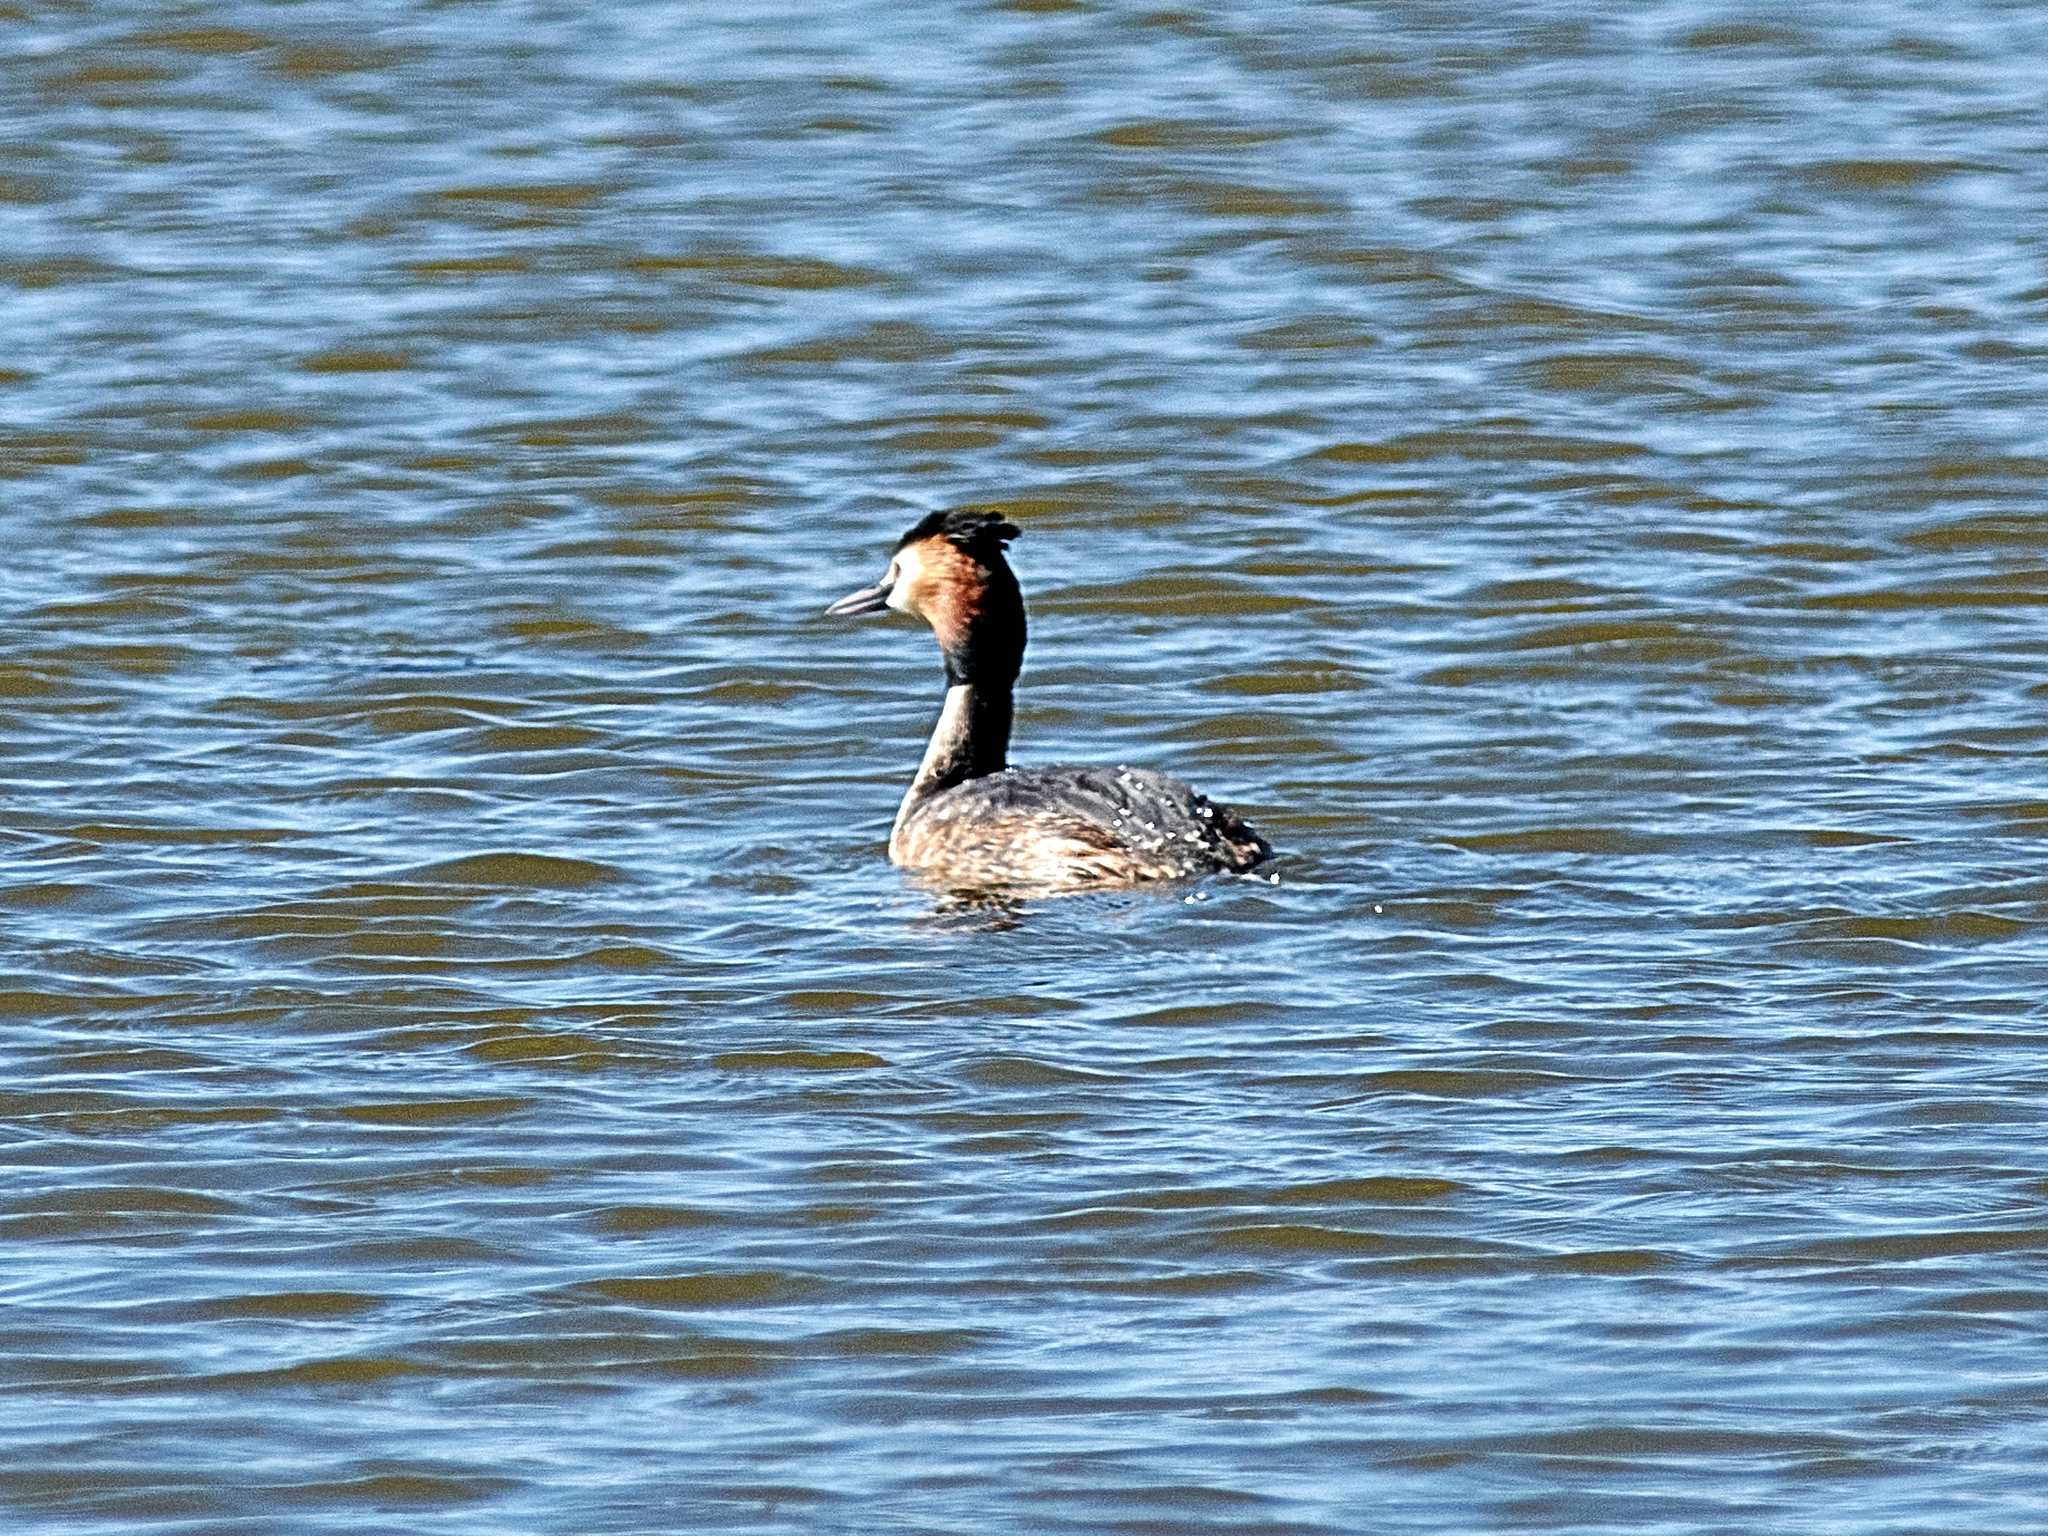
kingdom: Animalia
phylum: Chordata
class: Aves
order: Podicipediformes
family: Podicipedidae
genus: Podiceps
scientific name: Podiceps cristatus
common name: Great crested grebe
